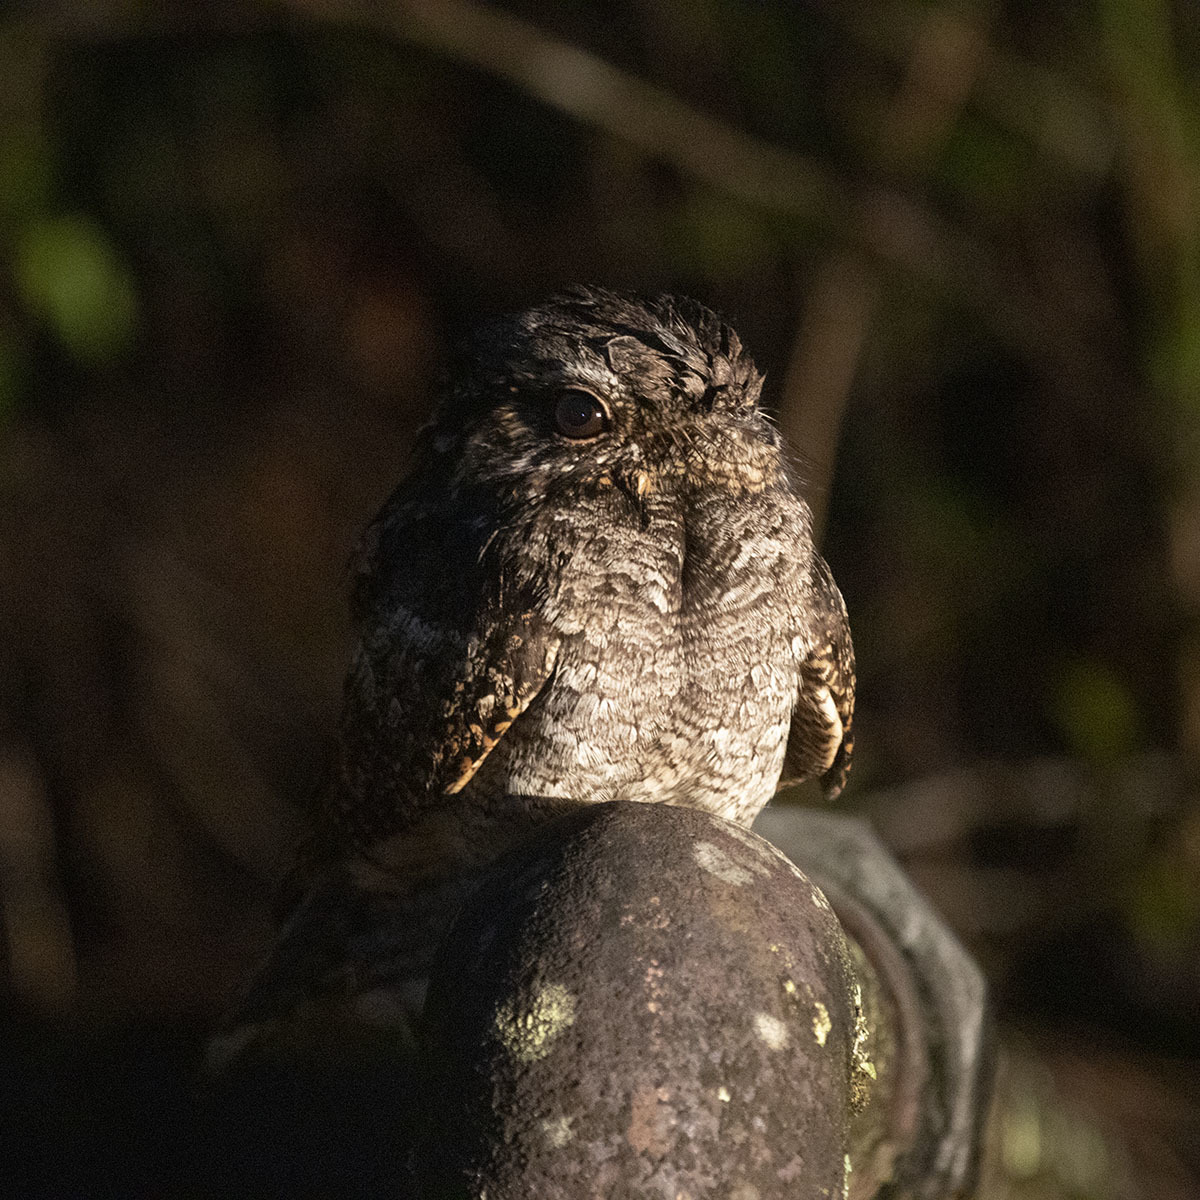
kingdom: Animalia
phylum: Chordata
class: Aves
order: Caprimulgiformes
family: Caprimulgidae
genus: Caprimulgus
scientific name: Caprimulgus affinis
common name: Savanna nightjar
